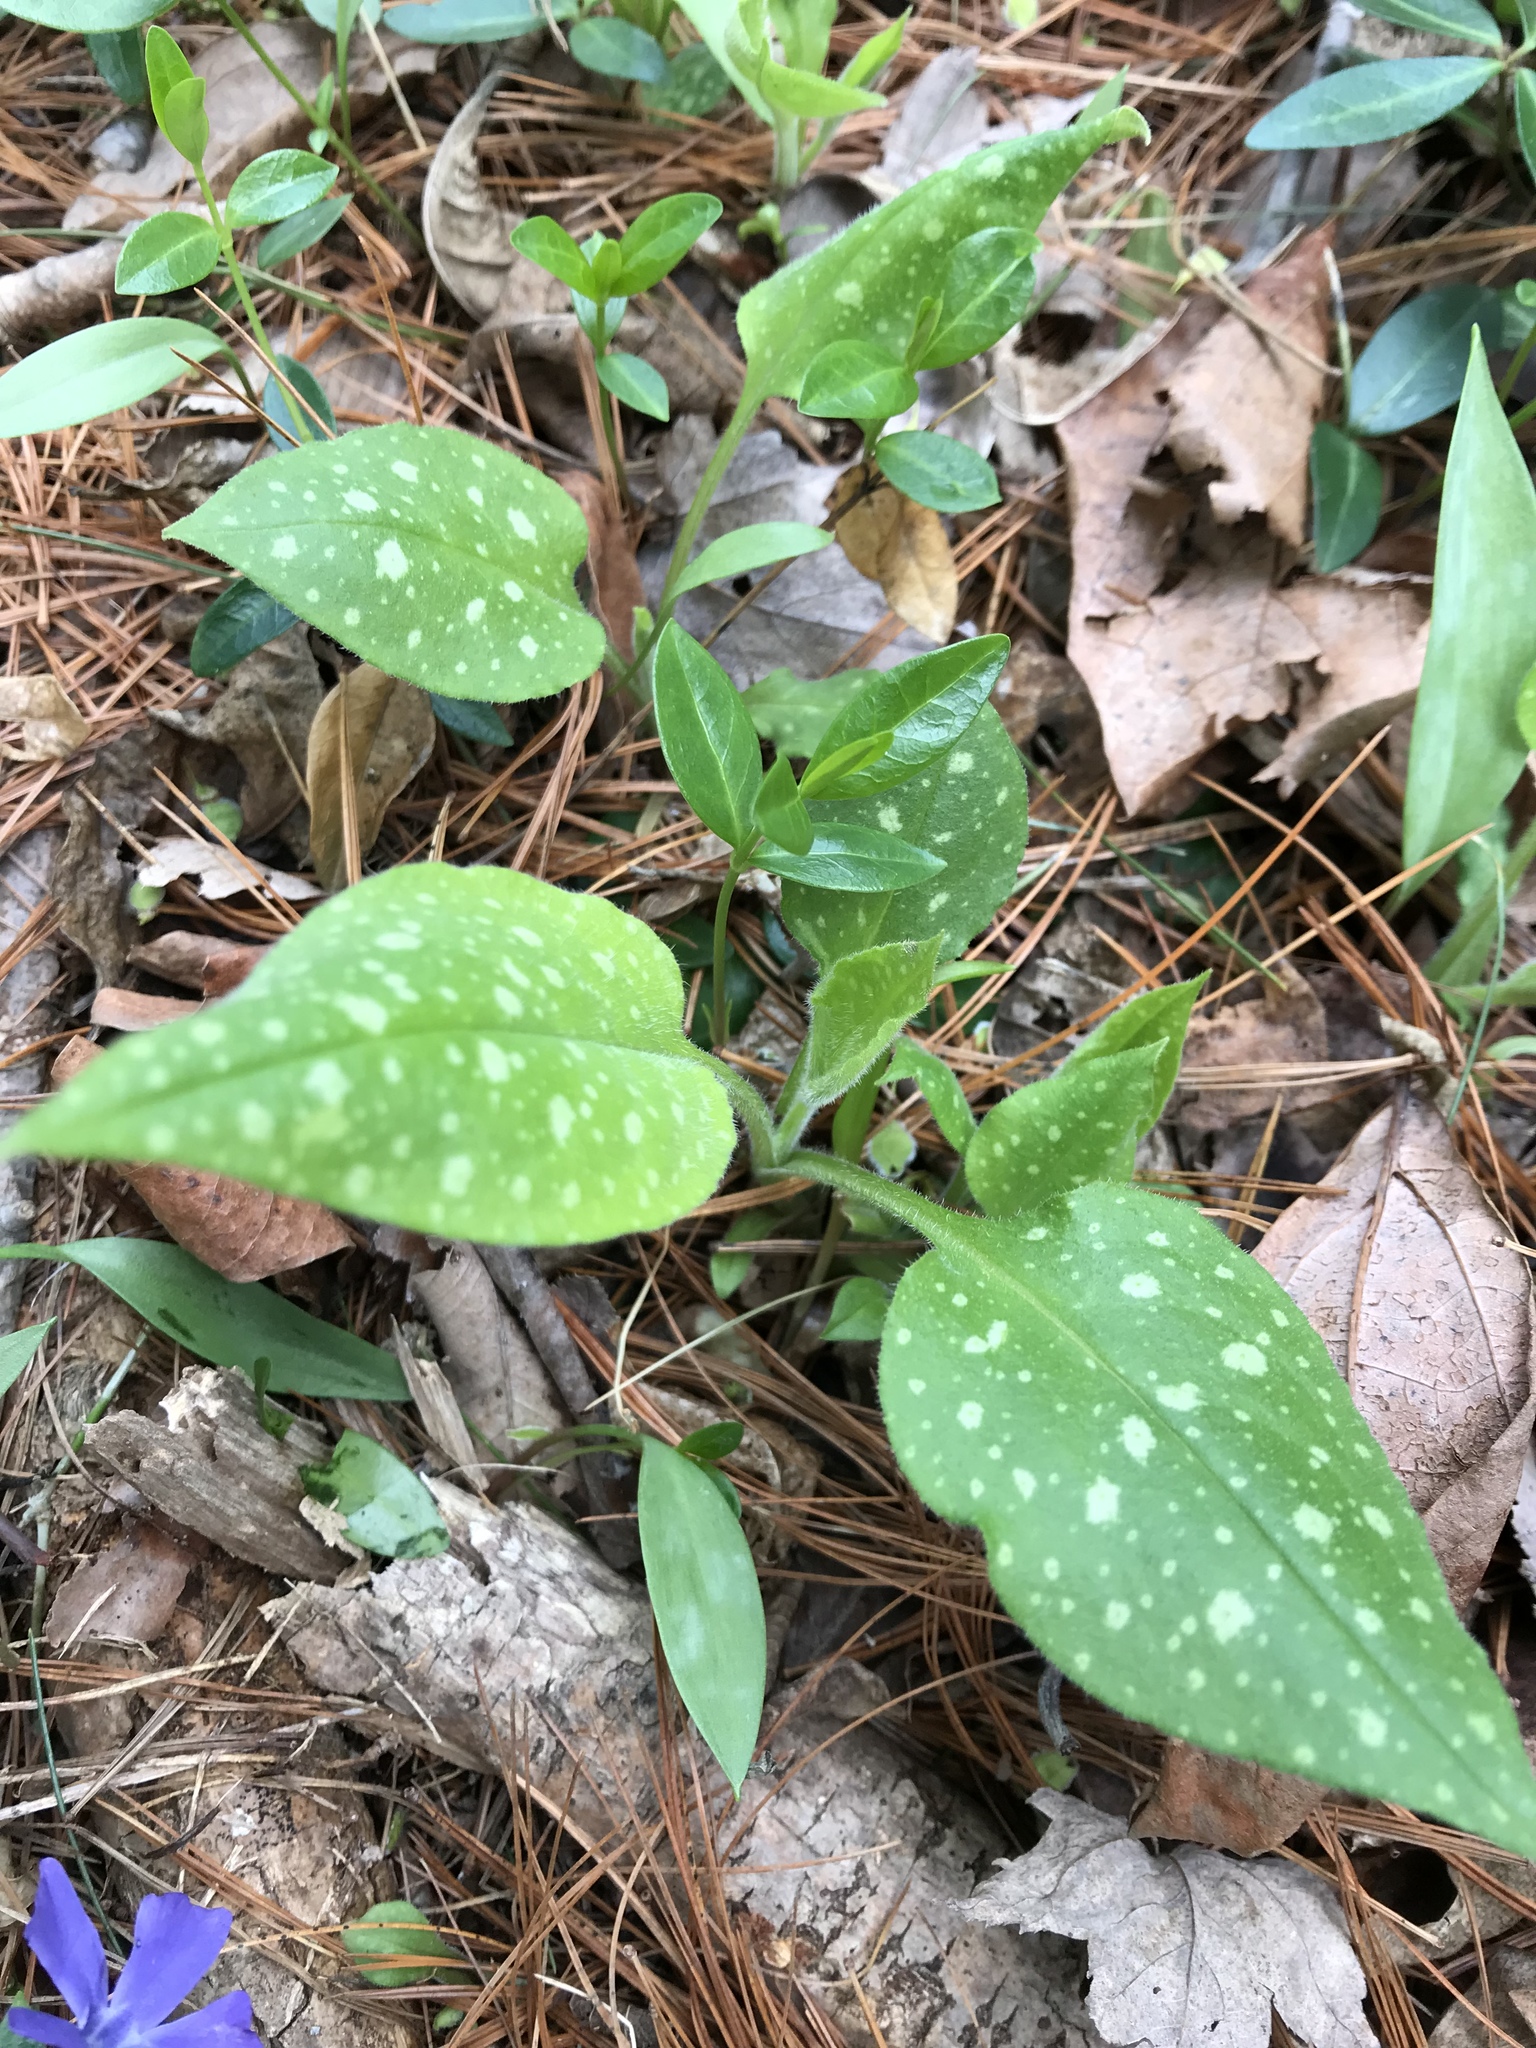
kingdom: Plantae
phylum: Tracheophyta
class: Magnoliopsida
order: Boraginales
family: Boraginaceae
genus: Pulmonaria
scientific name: Pulmonaria officinalis
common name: Lungwort
